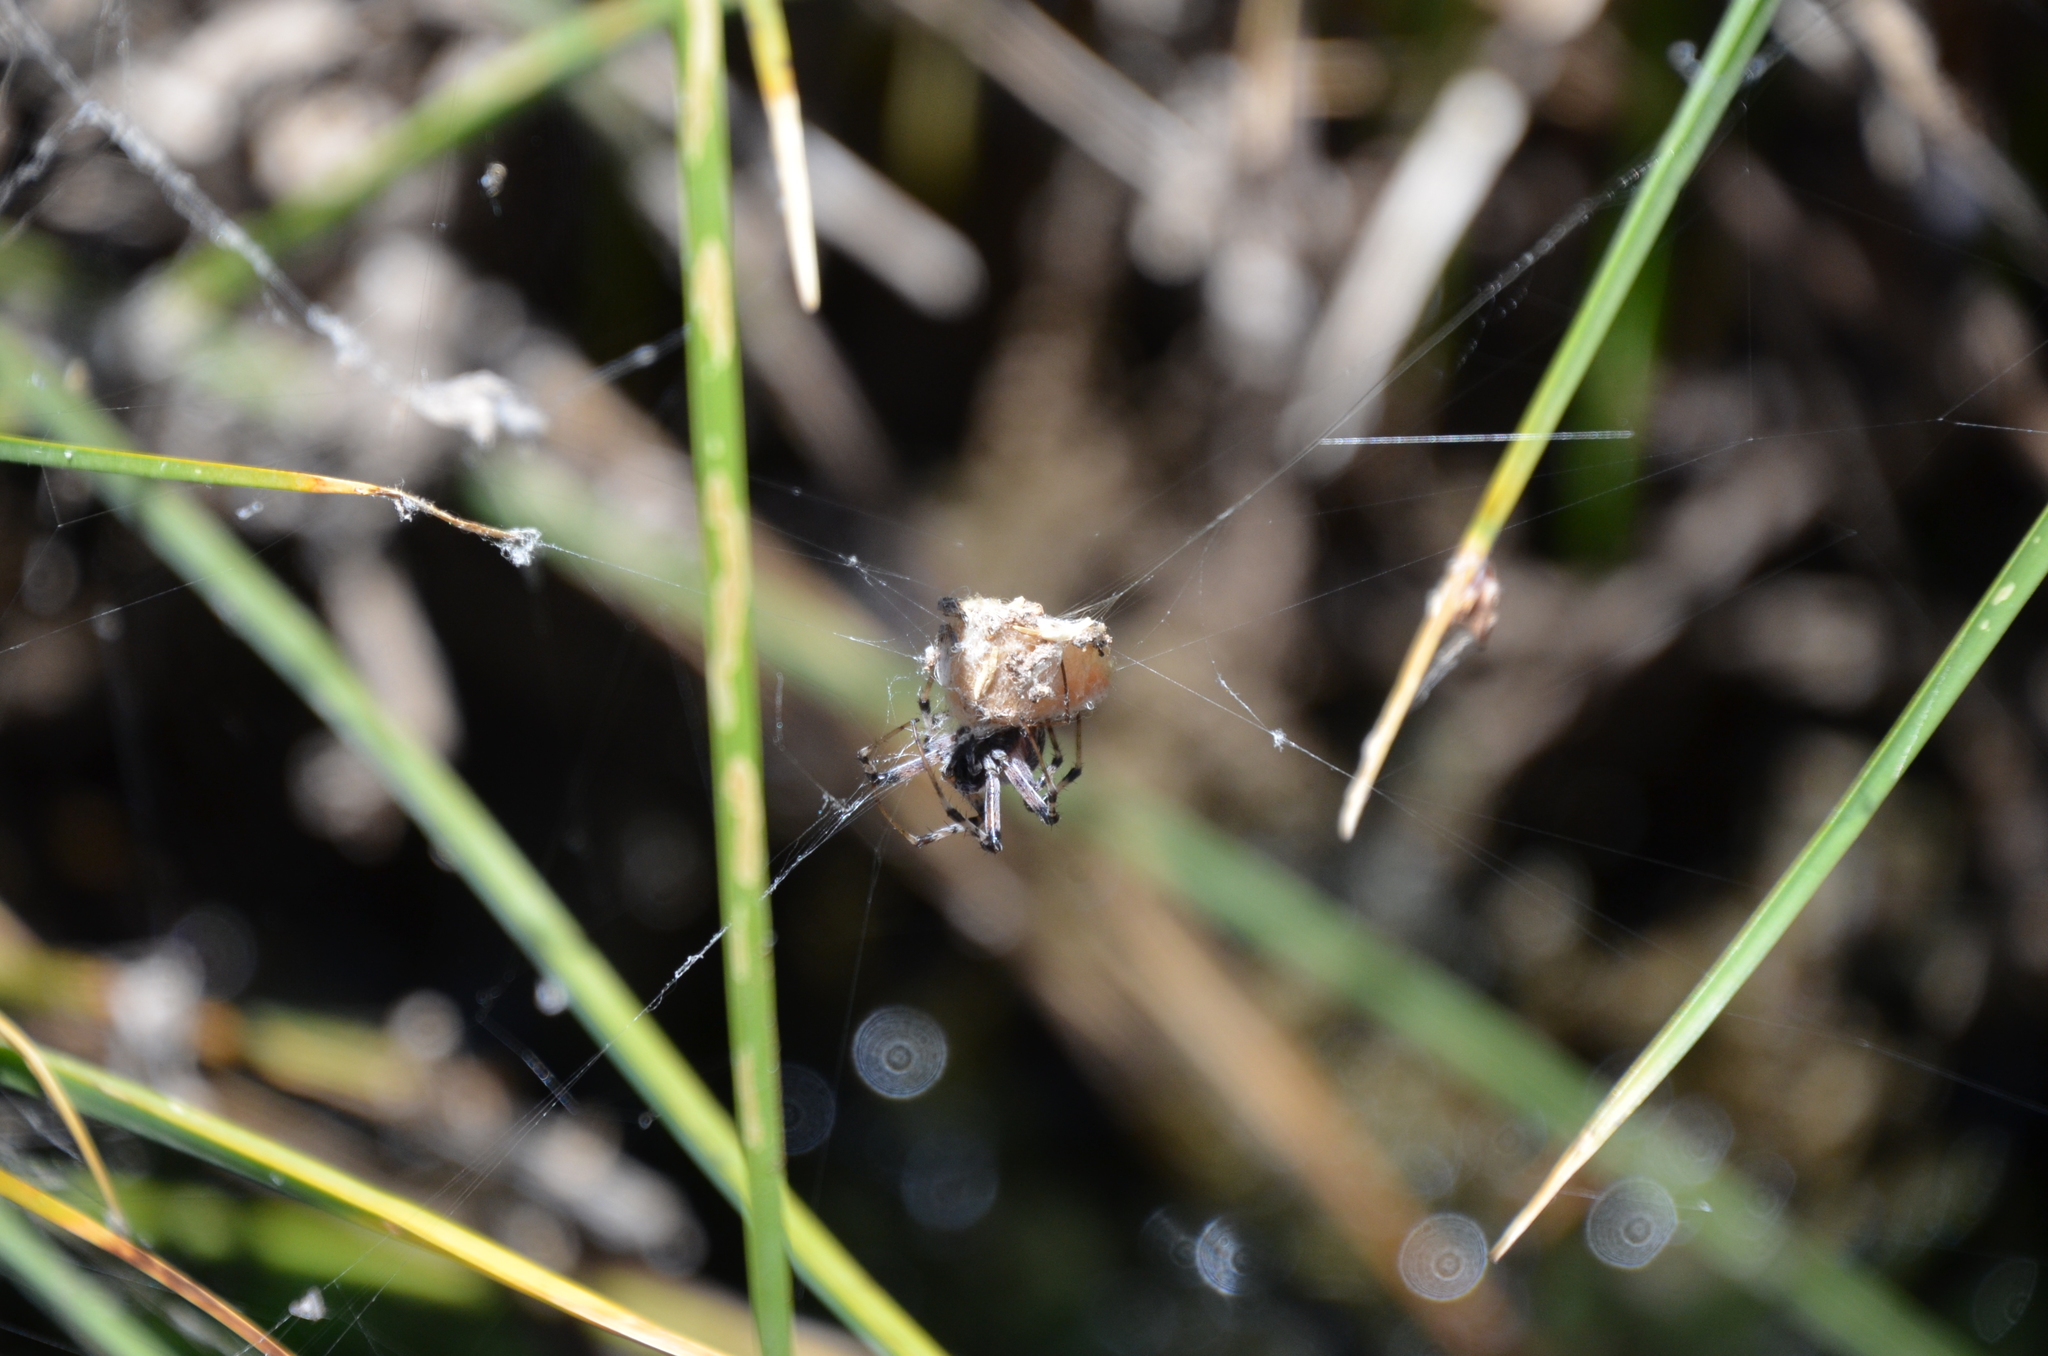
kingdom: Animalia
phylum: Arthropoda
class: Arachnida
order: Araneae
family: Araneidae
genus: Metepeira
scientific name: Metepeira
